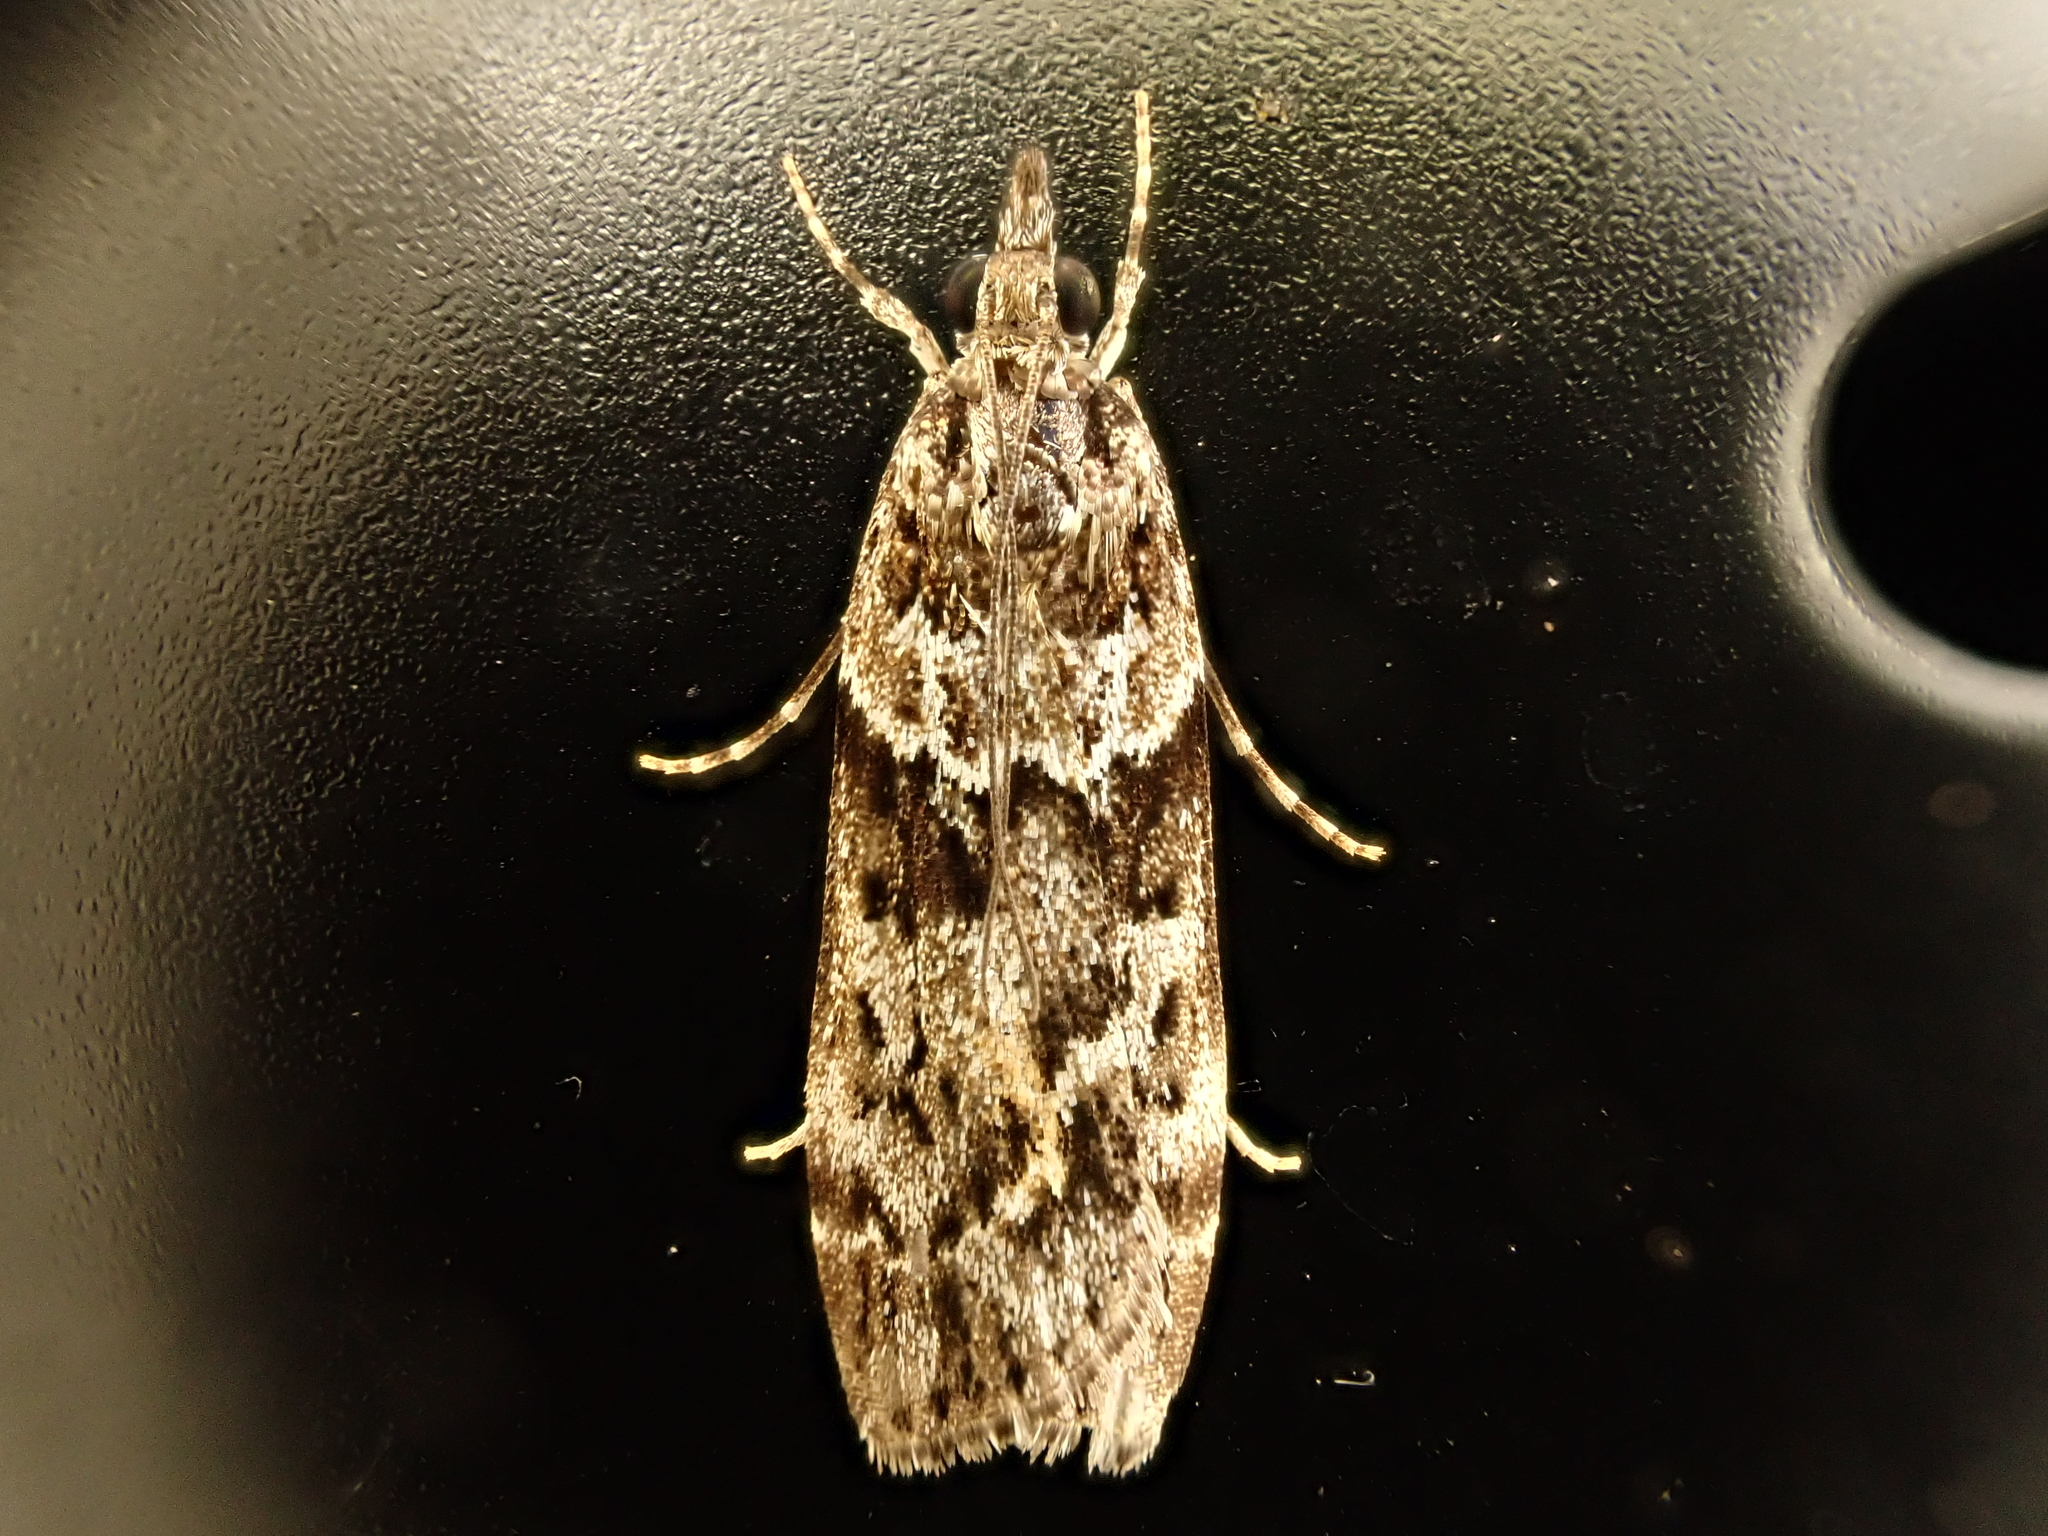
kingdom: Animalia
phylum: Arthropoda
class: Insecta
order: Lepidoptera
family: Crambidae
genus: Eudonia
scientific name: Eudonia submarginalis
